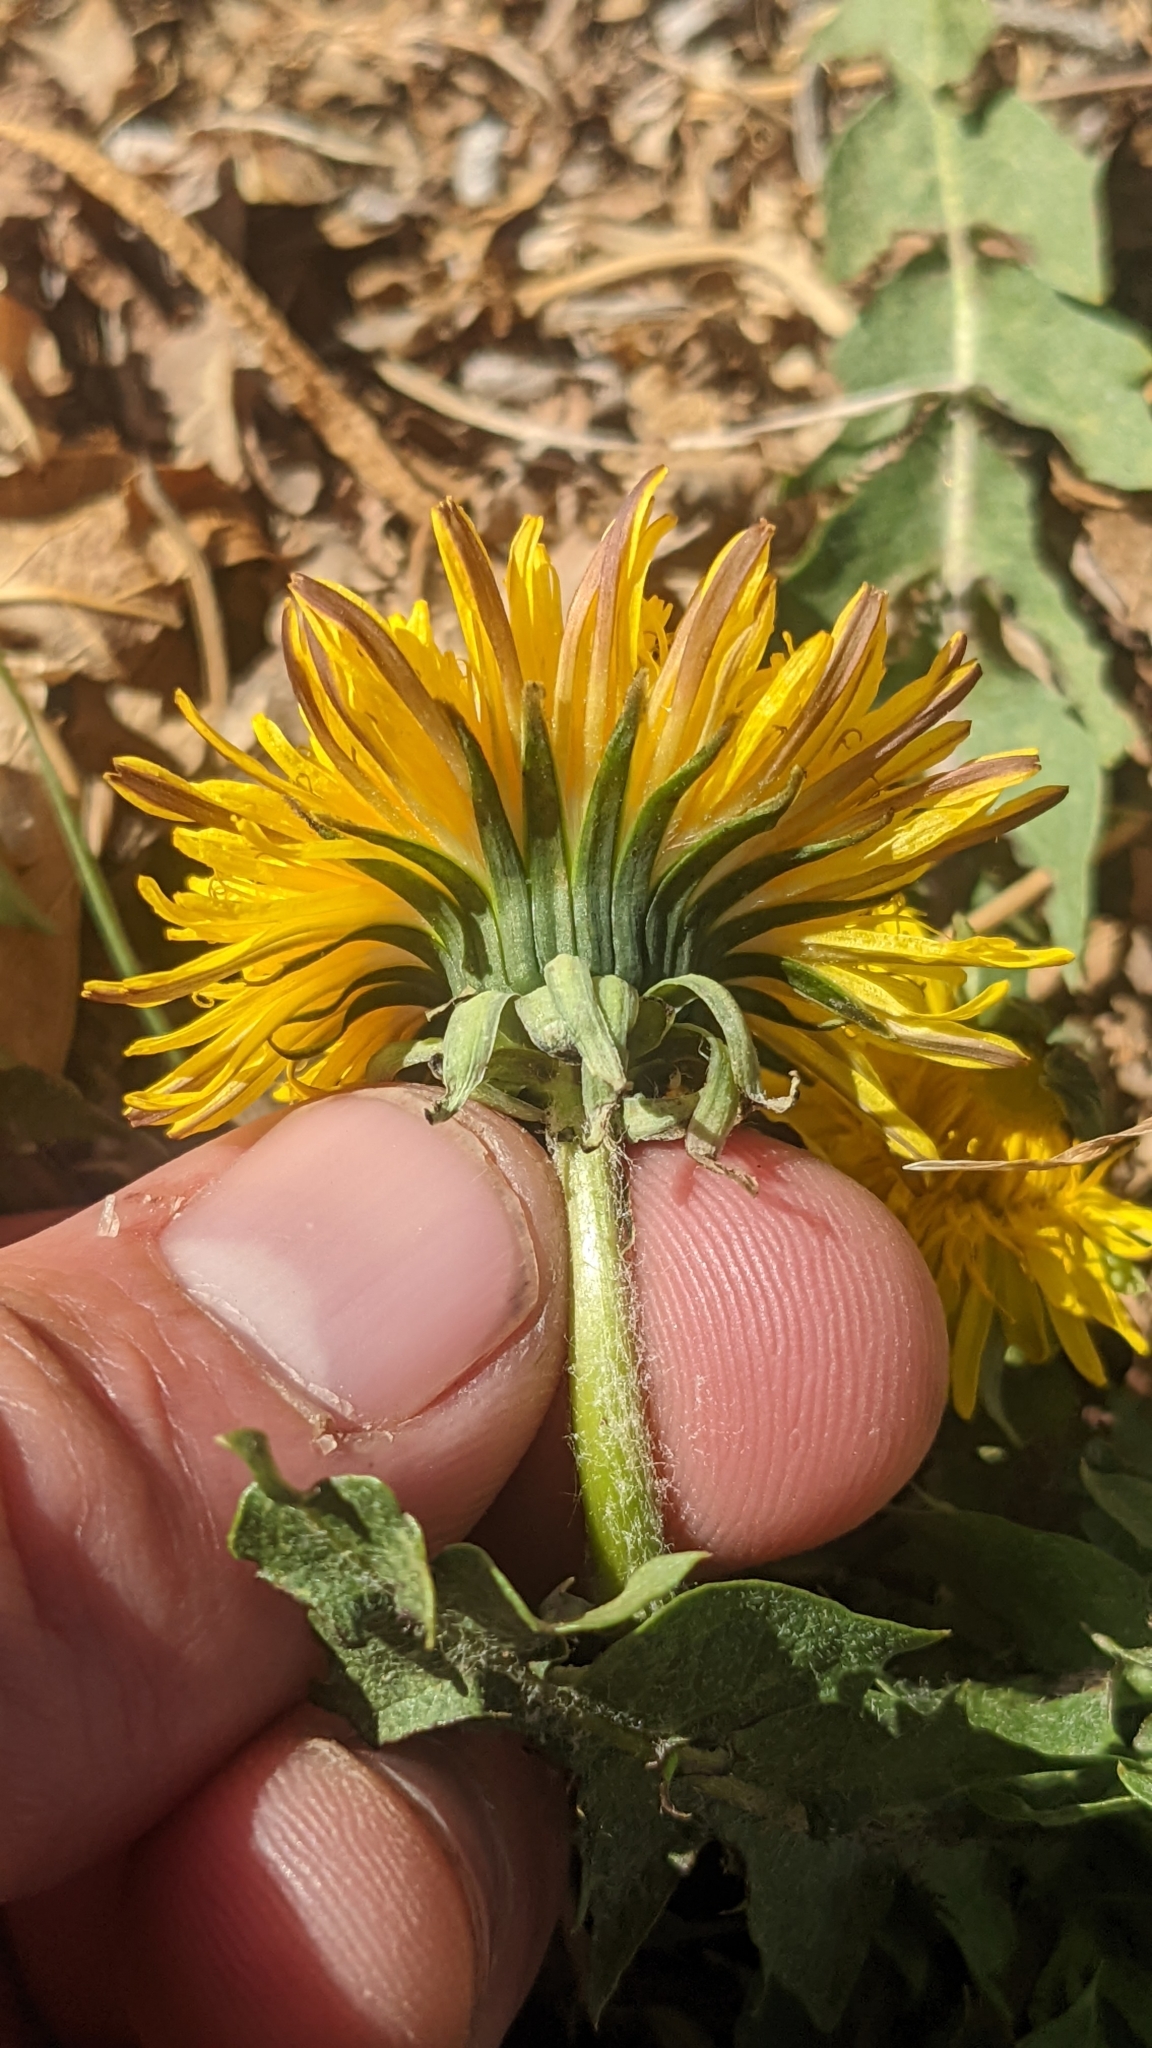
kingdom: Plantae
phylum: Tracheophyta
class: Magnoliopsida
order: Asterales
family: Asteraceae
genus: Taraxacum
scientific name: Taraxacum officinale
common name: Common dandelion
